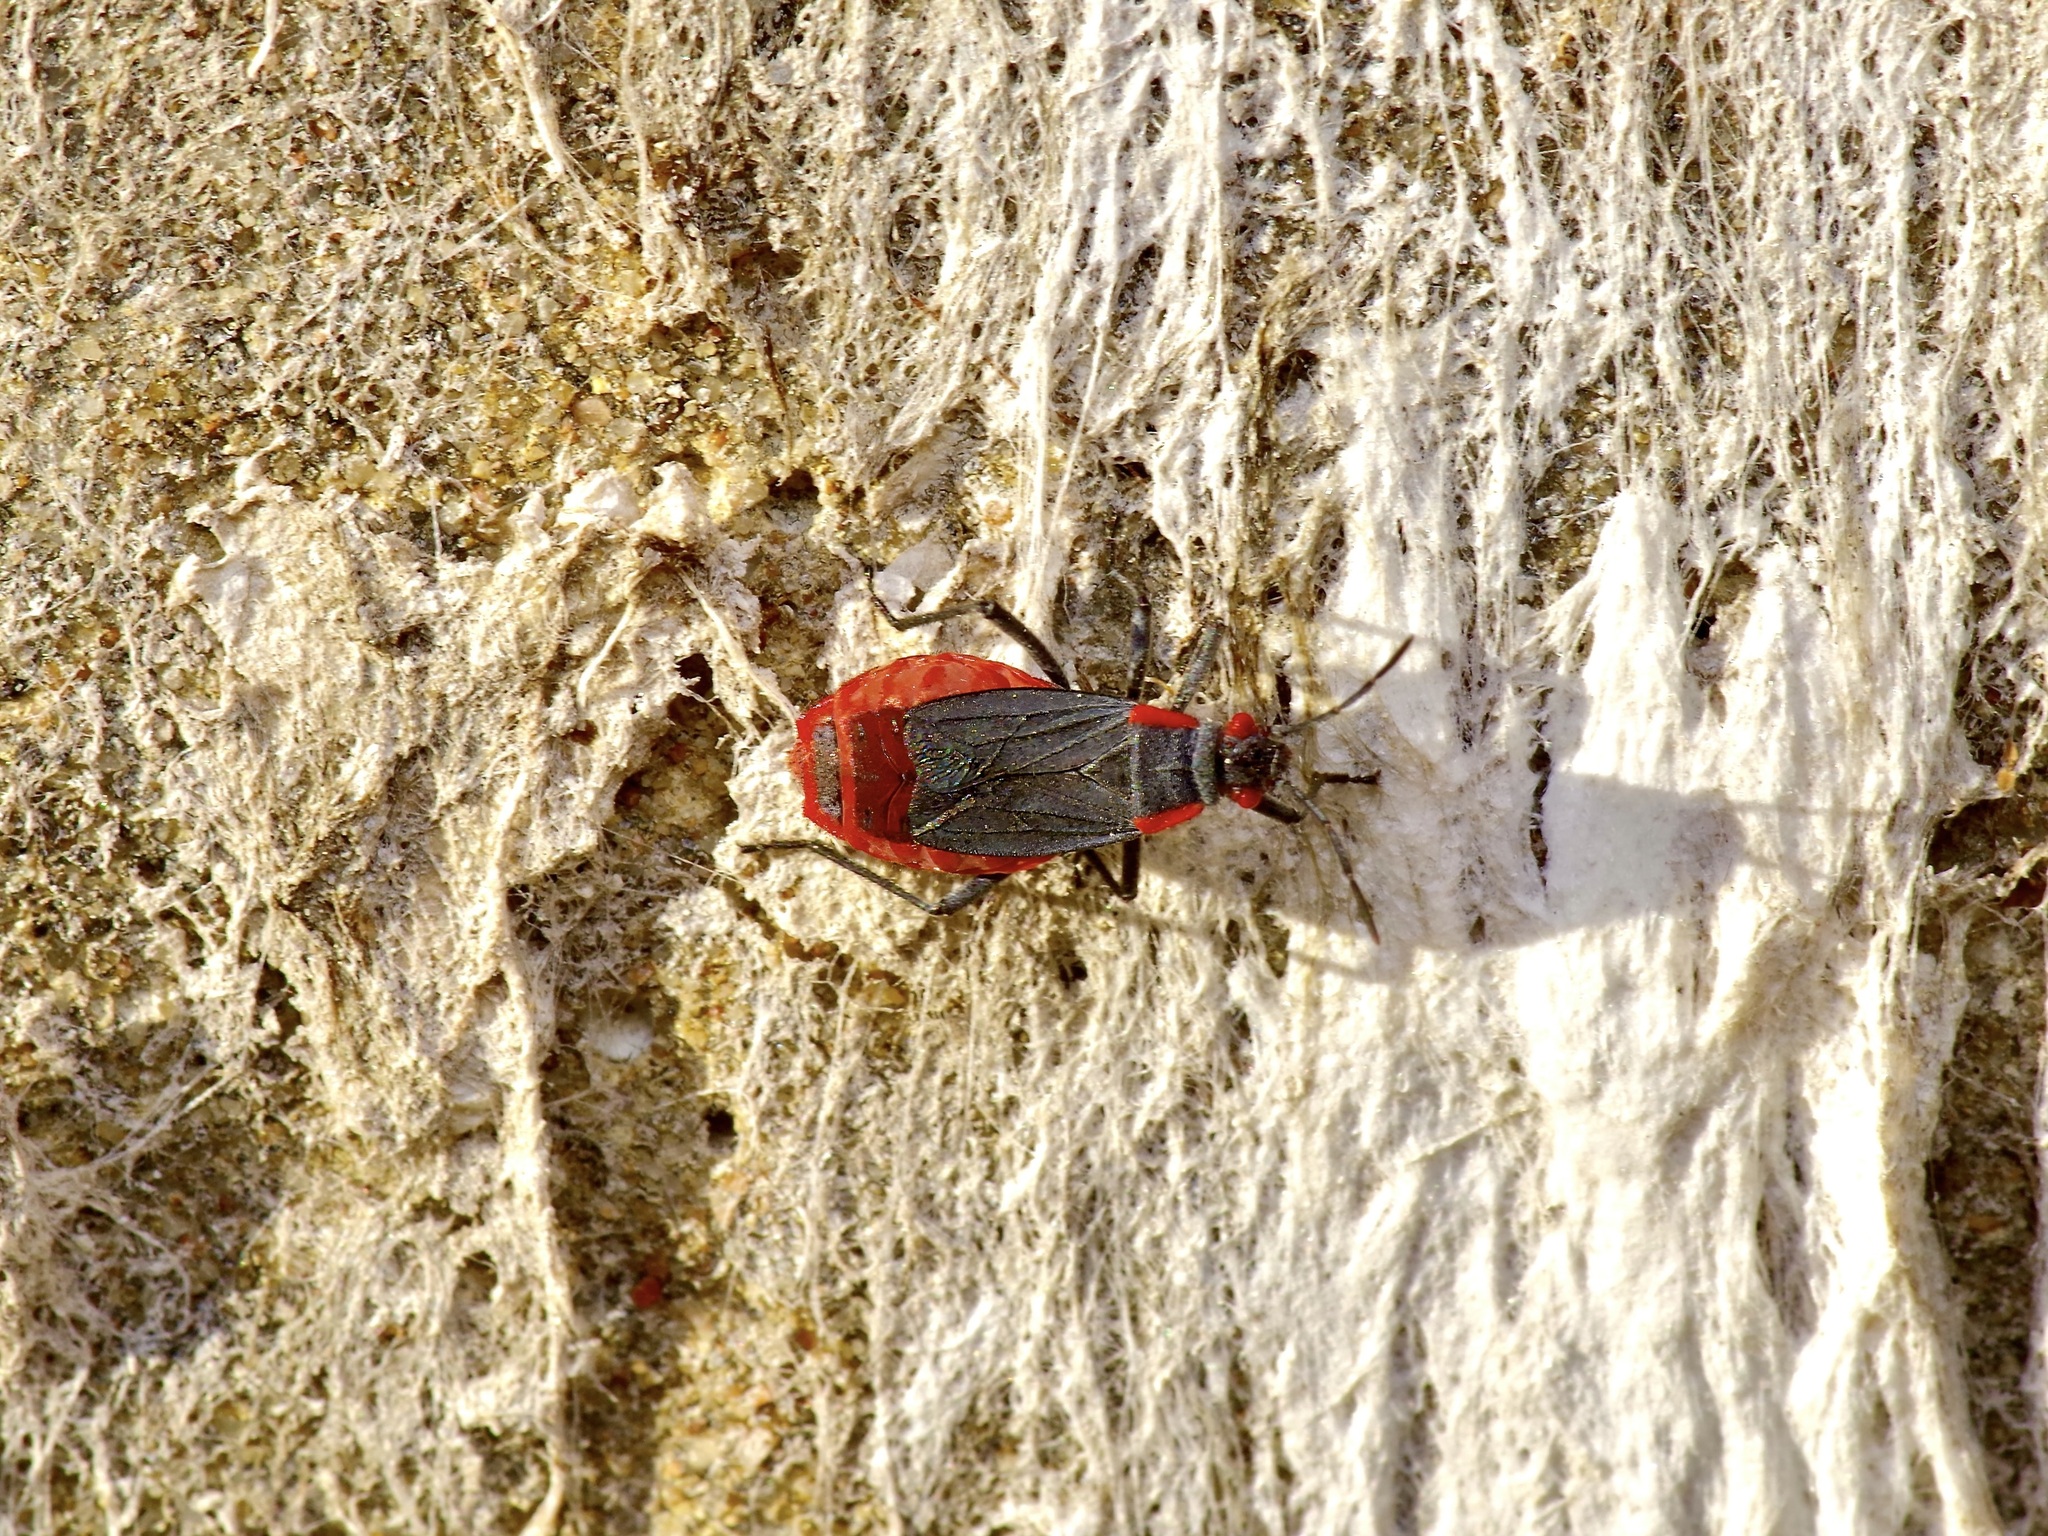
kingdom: Animalia
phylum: Arthropoda
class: Insecta
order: Hemiptera
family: Rhopalidae
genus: Jadera
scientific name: Jadera haematoloma
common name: Red-shouldered bug
